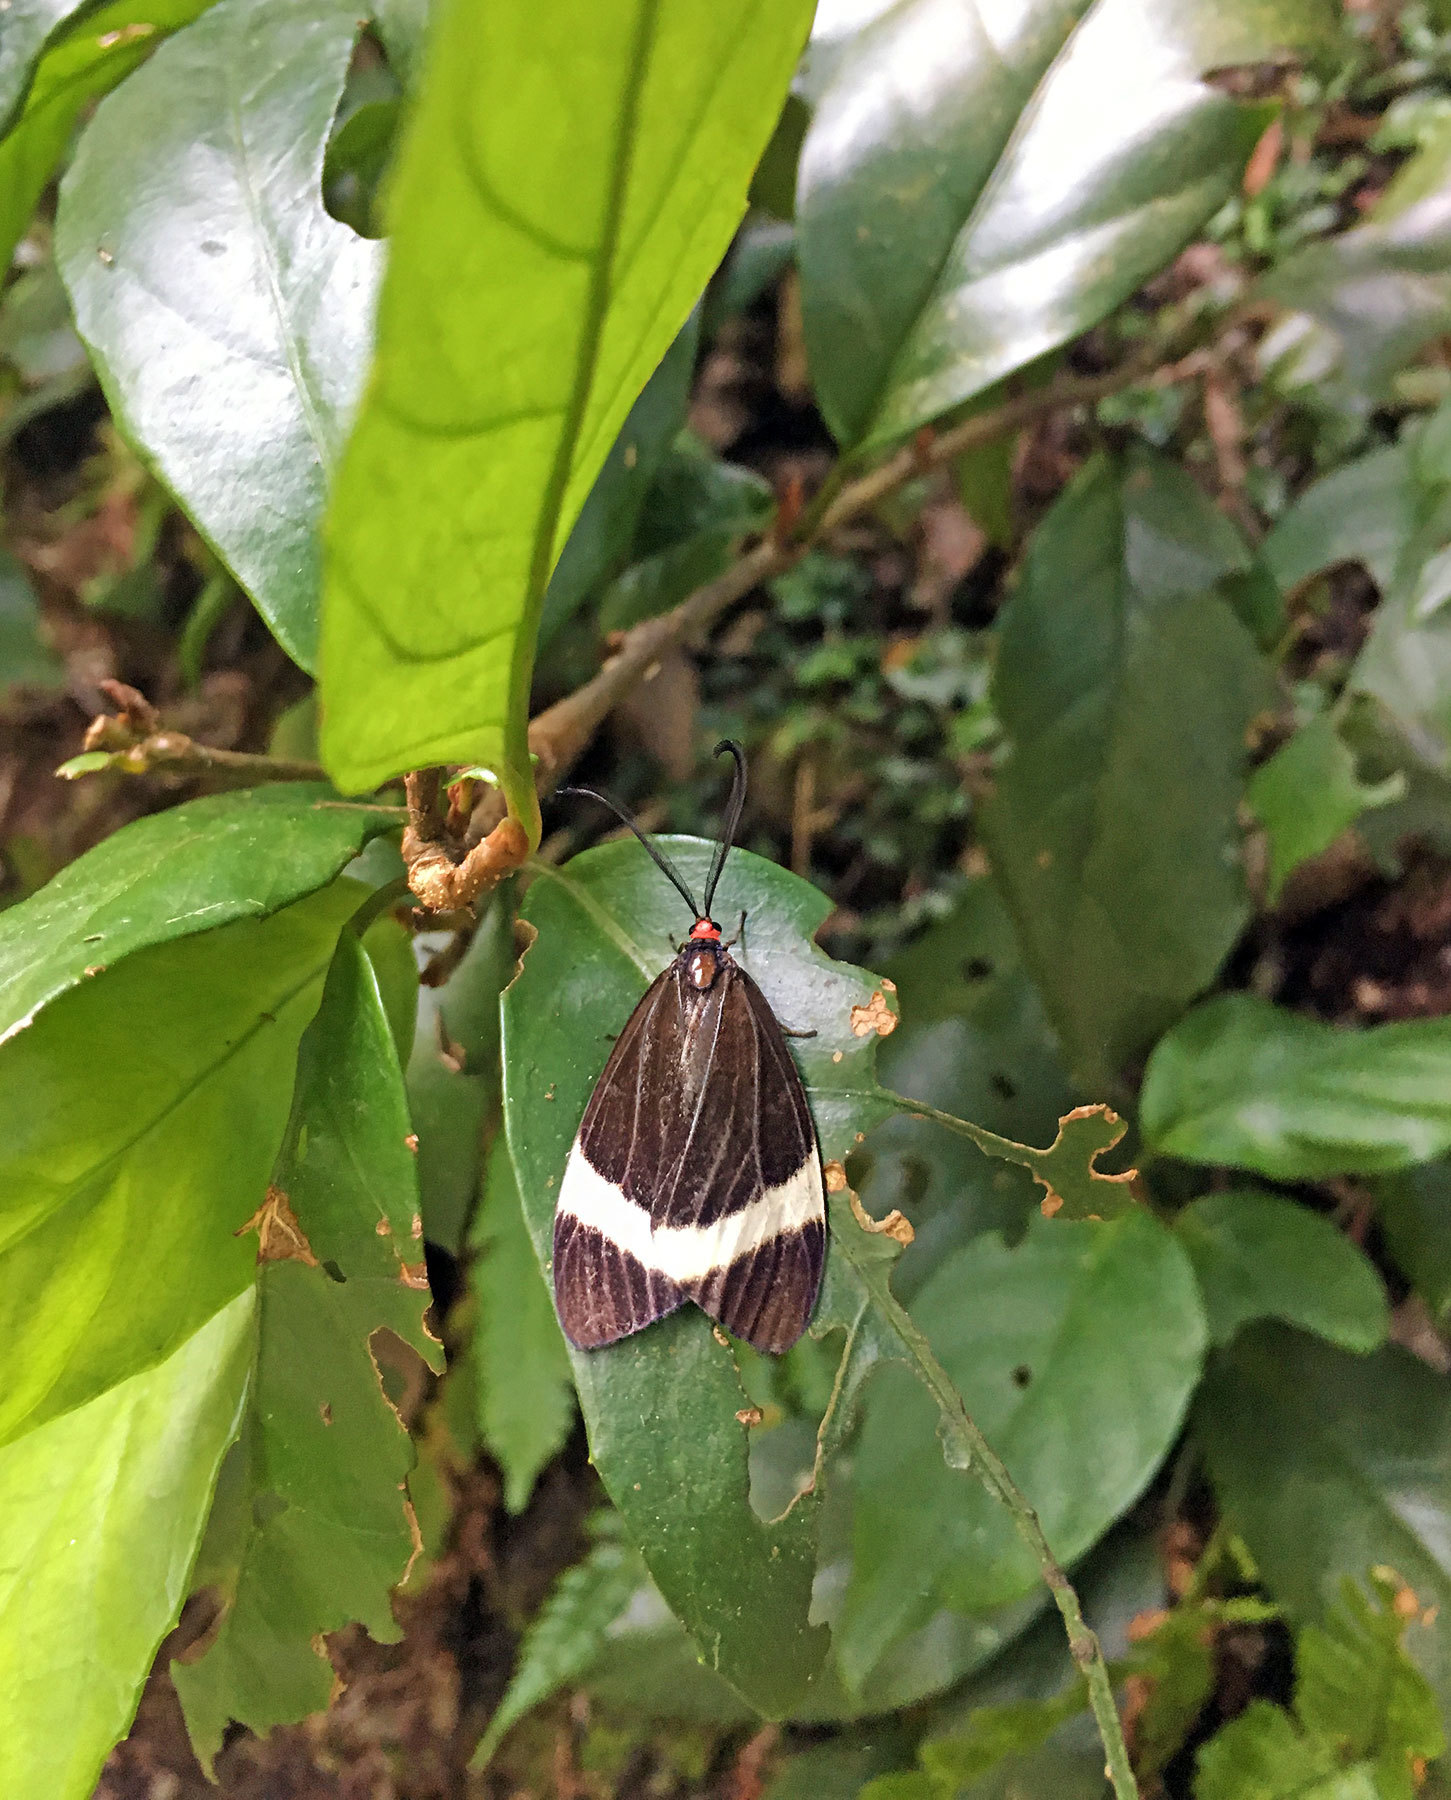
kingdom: Animalia
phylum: Arthropoda
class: Insecta
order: Lepidoptera
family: Zygaenidae
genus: Pidorus
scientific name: Pidorus glaucopis
